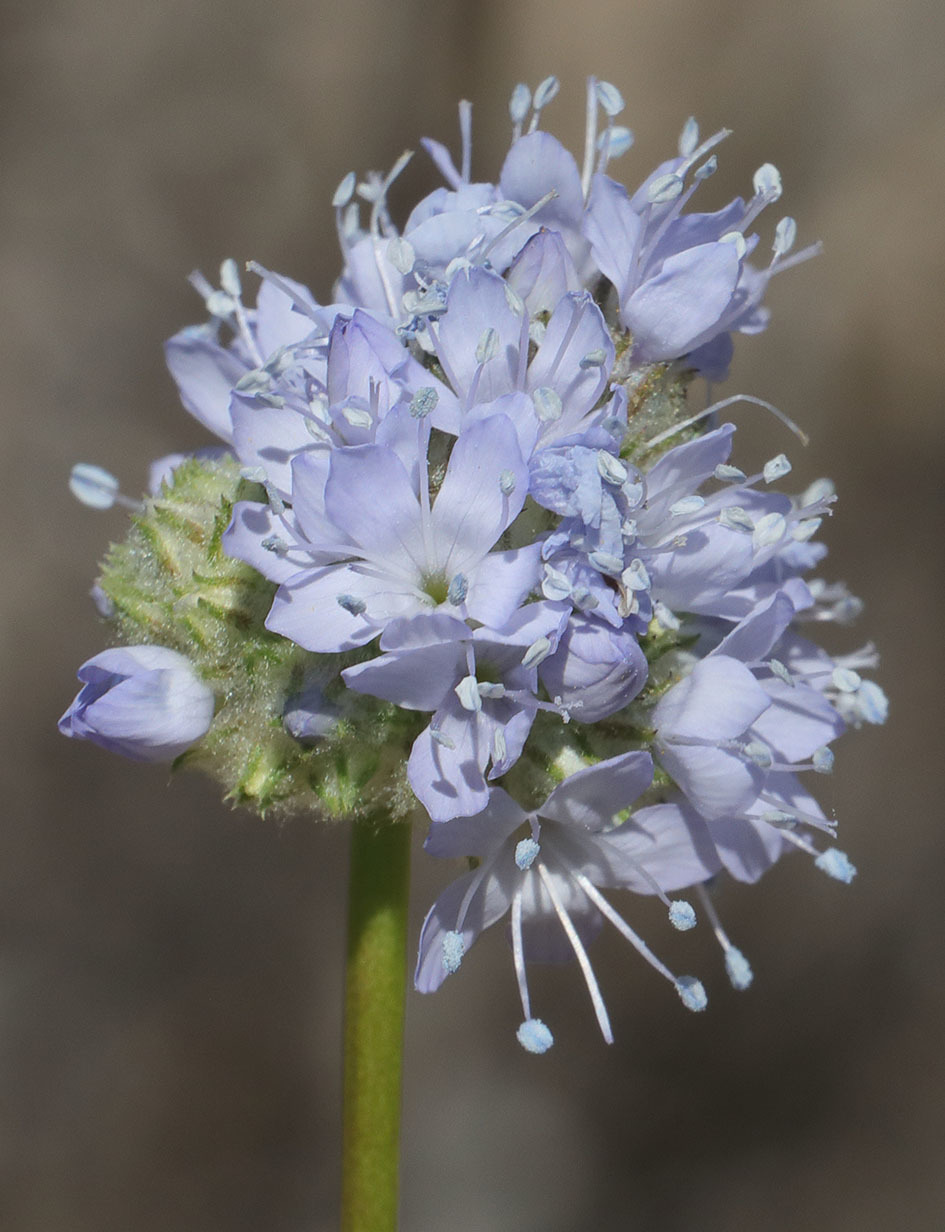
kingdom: Plantae
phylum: Tracheophyta
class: Magnoliopsida
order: Ericales
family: Polemoniaceae
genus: Gilia
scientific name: Gilia capitata
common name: Bluehead gilia
